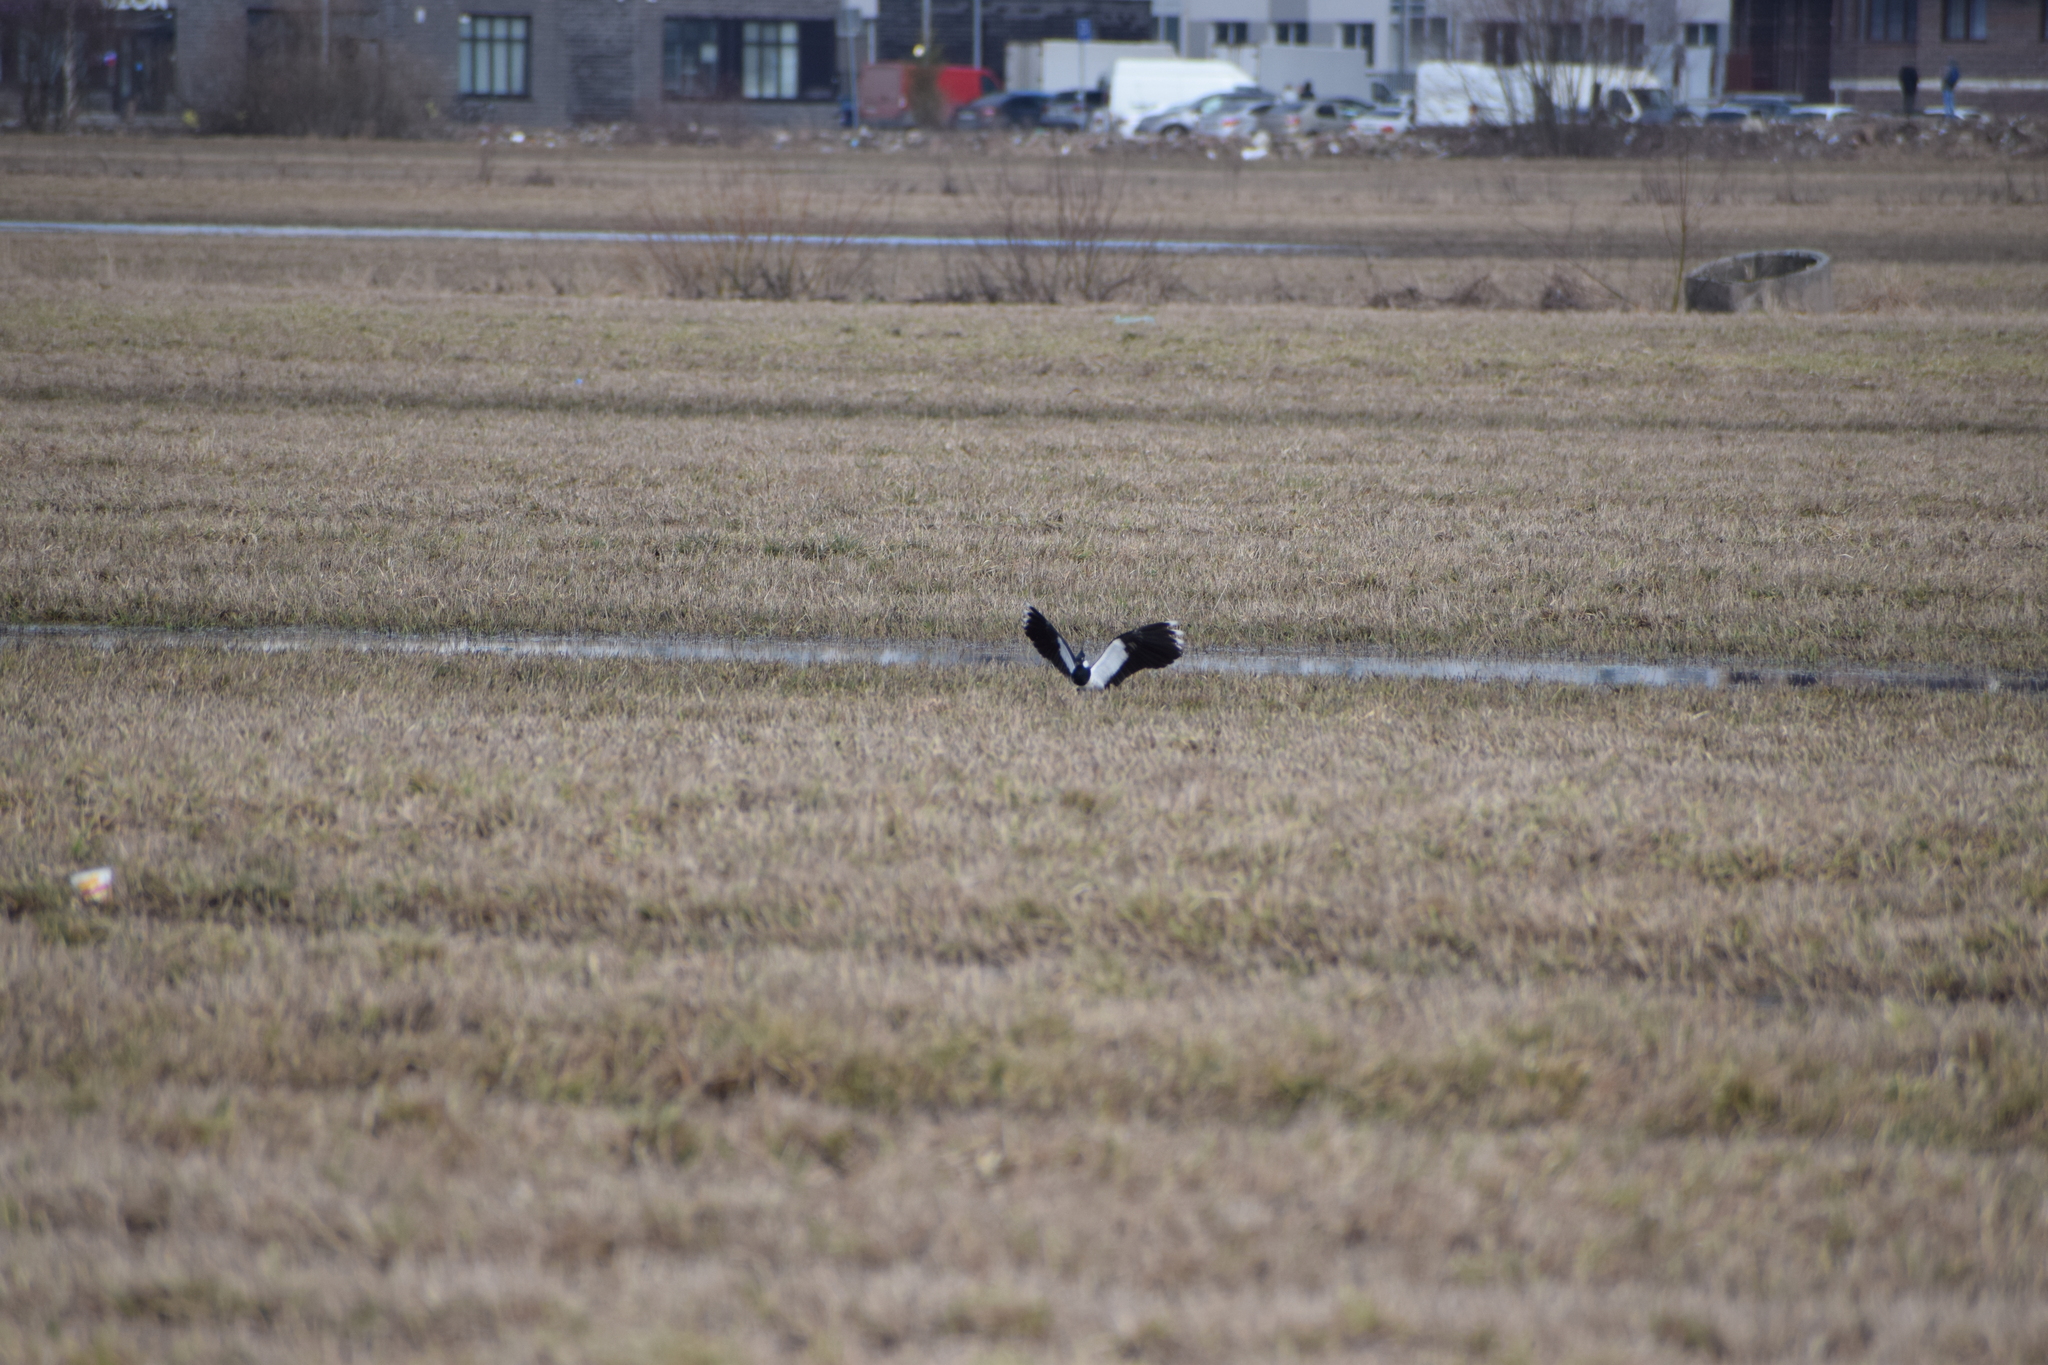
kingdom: Animalia
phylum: Chordata
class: Aves
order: Charadriiformes
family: Charadriidae
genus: Vanellus
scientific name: Vanellus vanellus
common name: Northern lapwing
